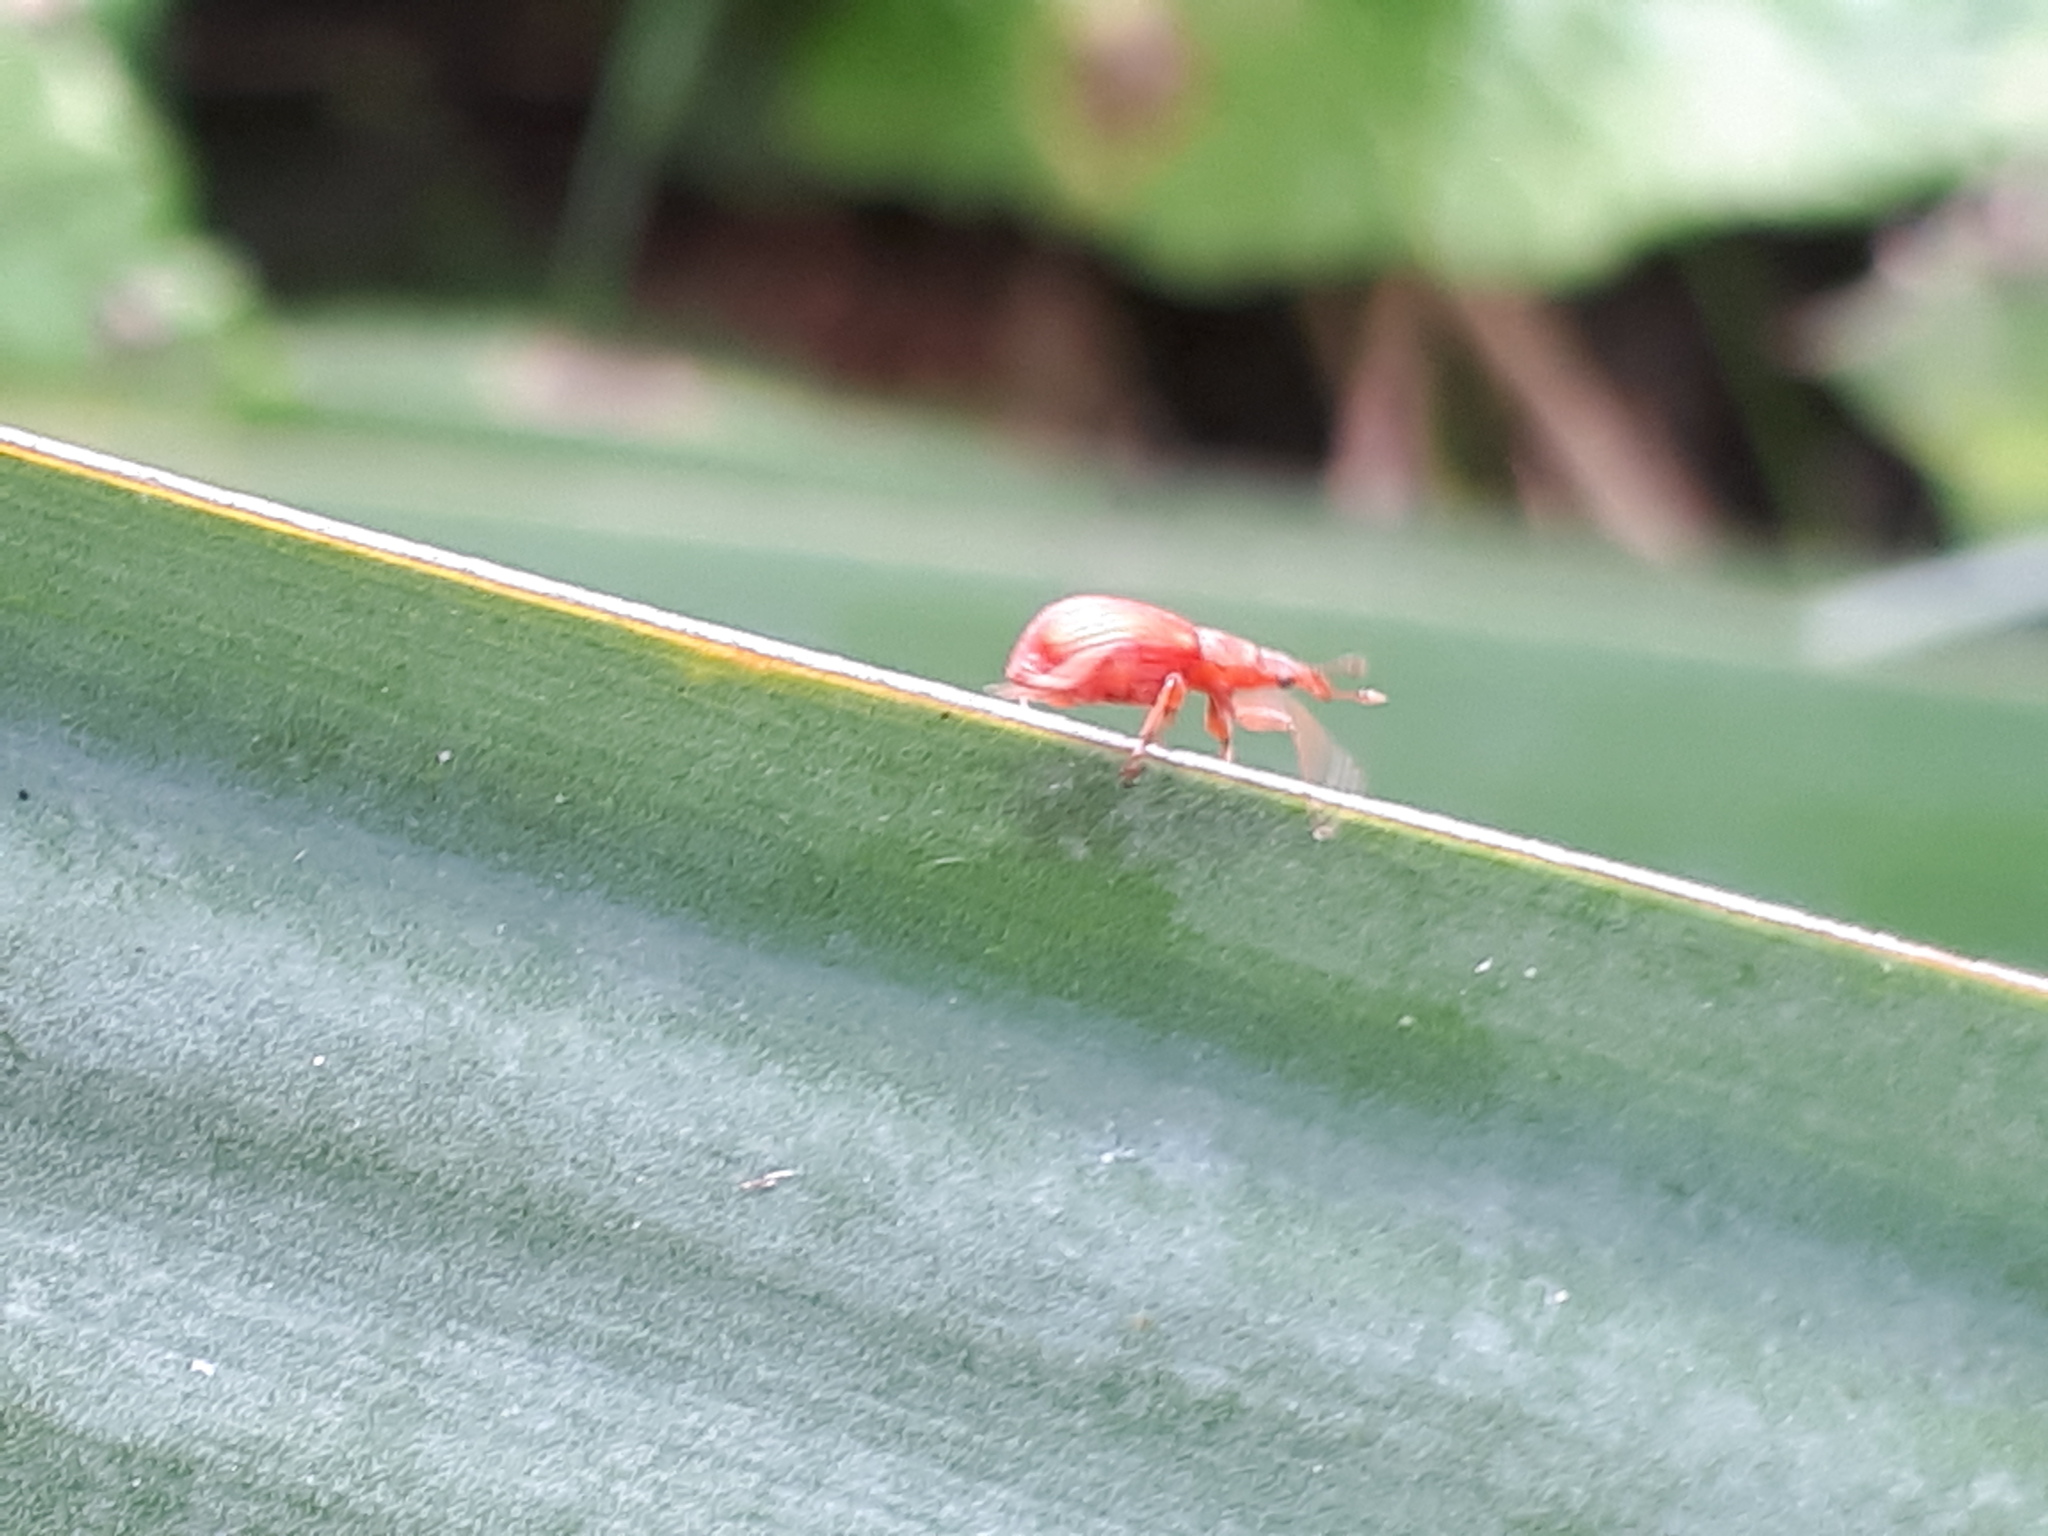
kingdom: Animalia
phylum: Arthropoda
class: Insecta
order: Coleoptera
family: Apionidae
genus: Apion
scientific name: Apion frumentarium
